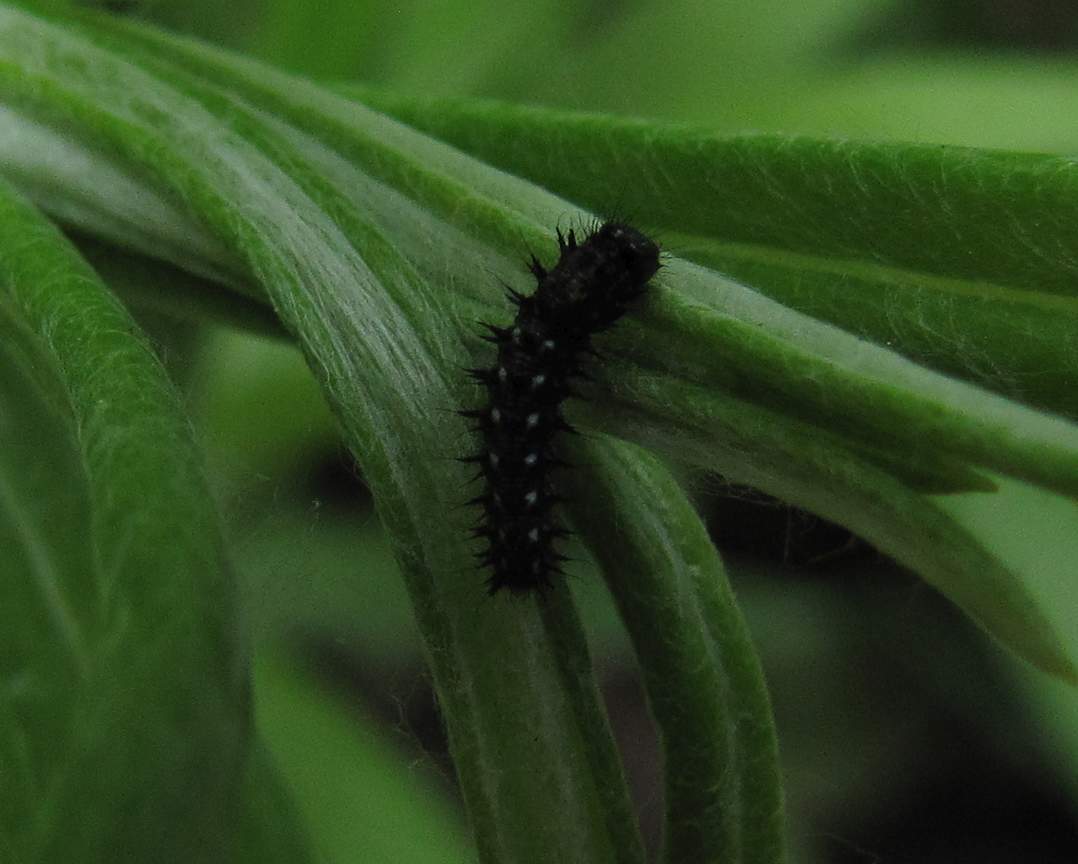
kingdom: Animalia
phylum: Arthropoda
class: Insecta
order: Lepidoptera
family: Nymphalidae
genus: Vanessa
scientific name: Vanessa virginiensis
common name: American lady
